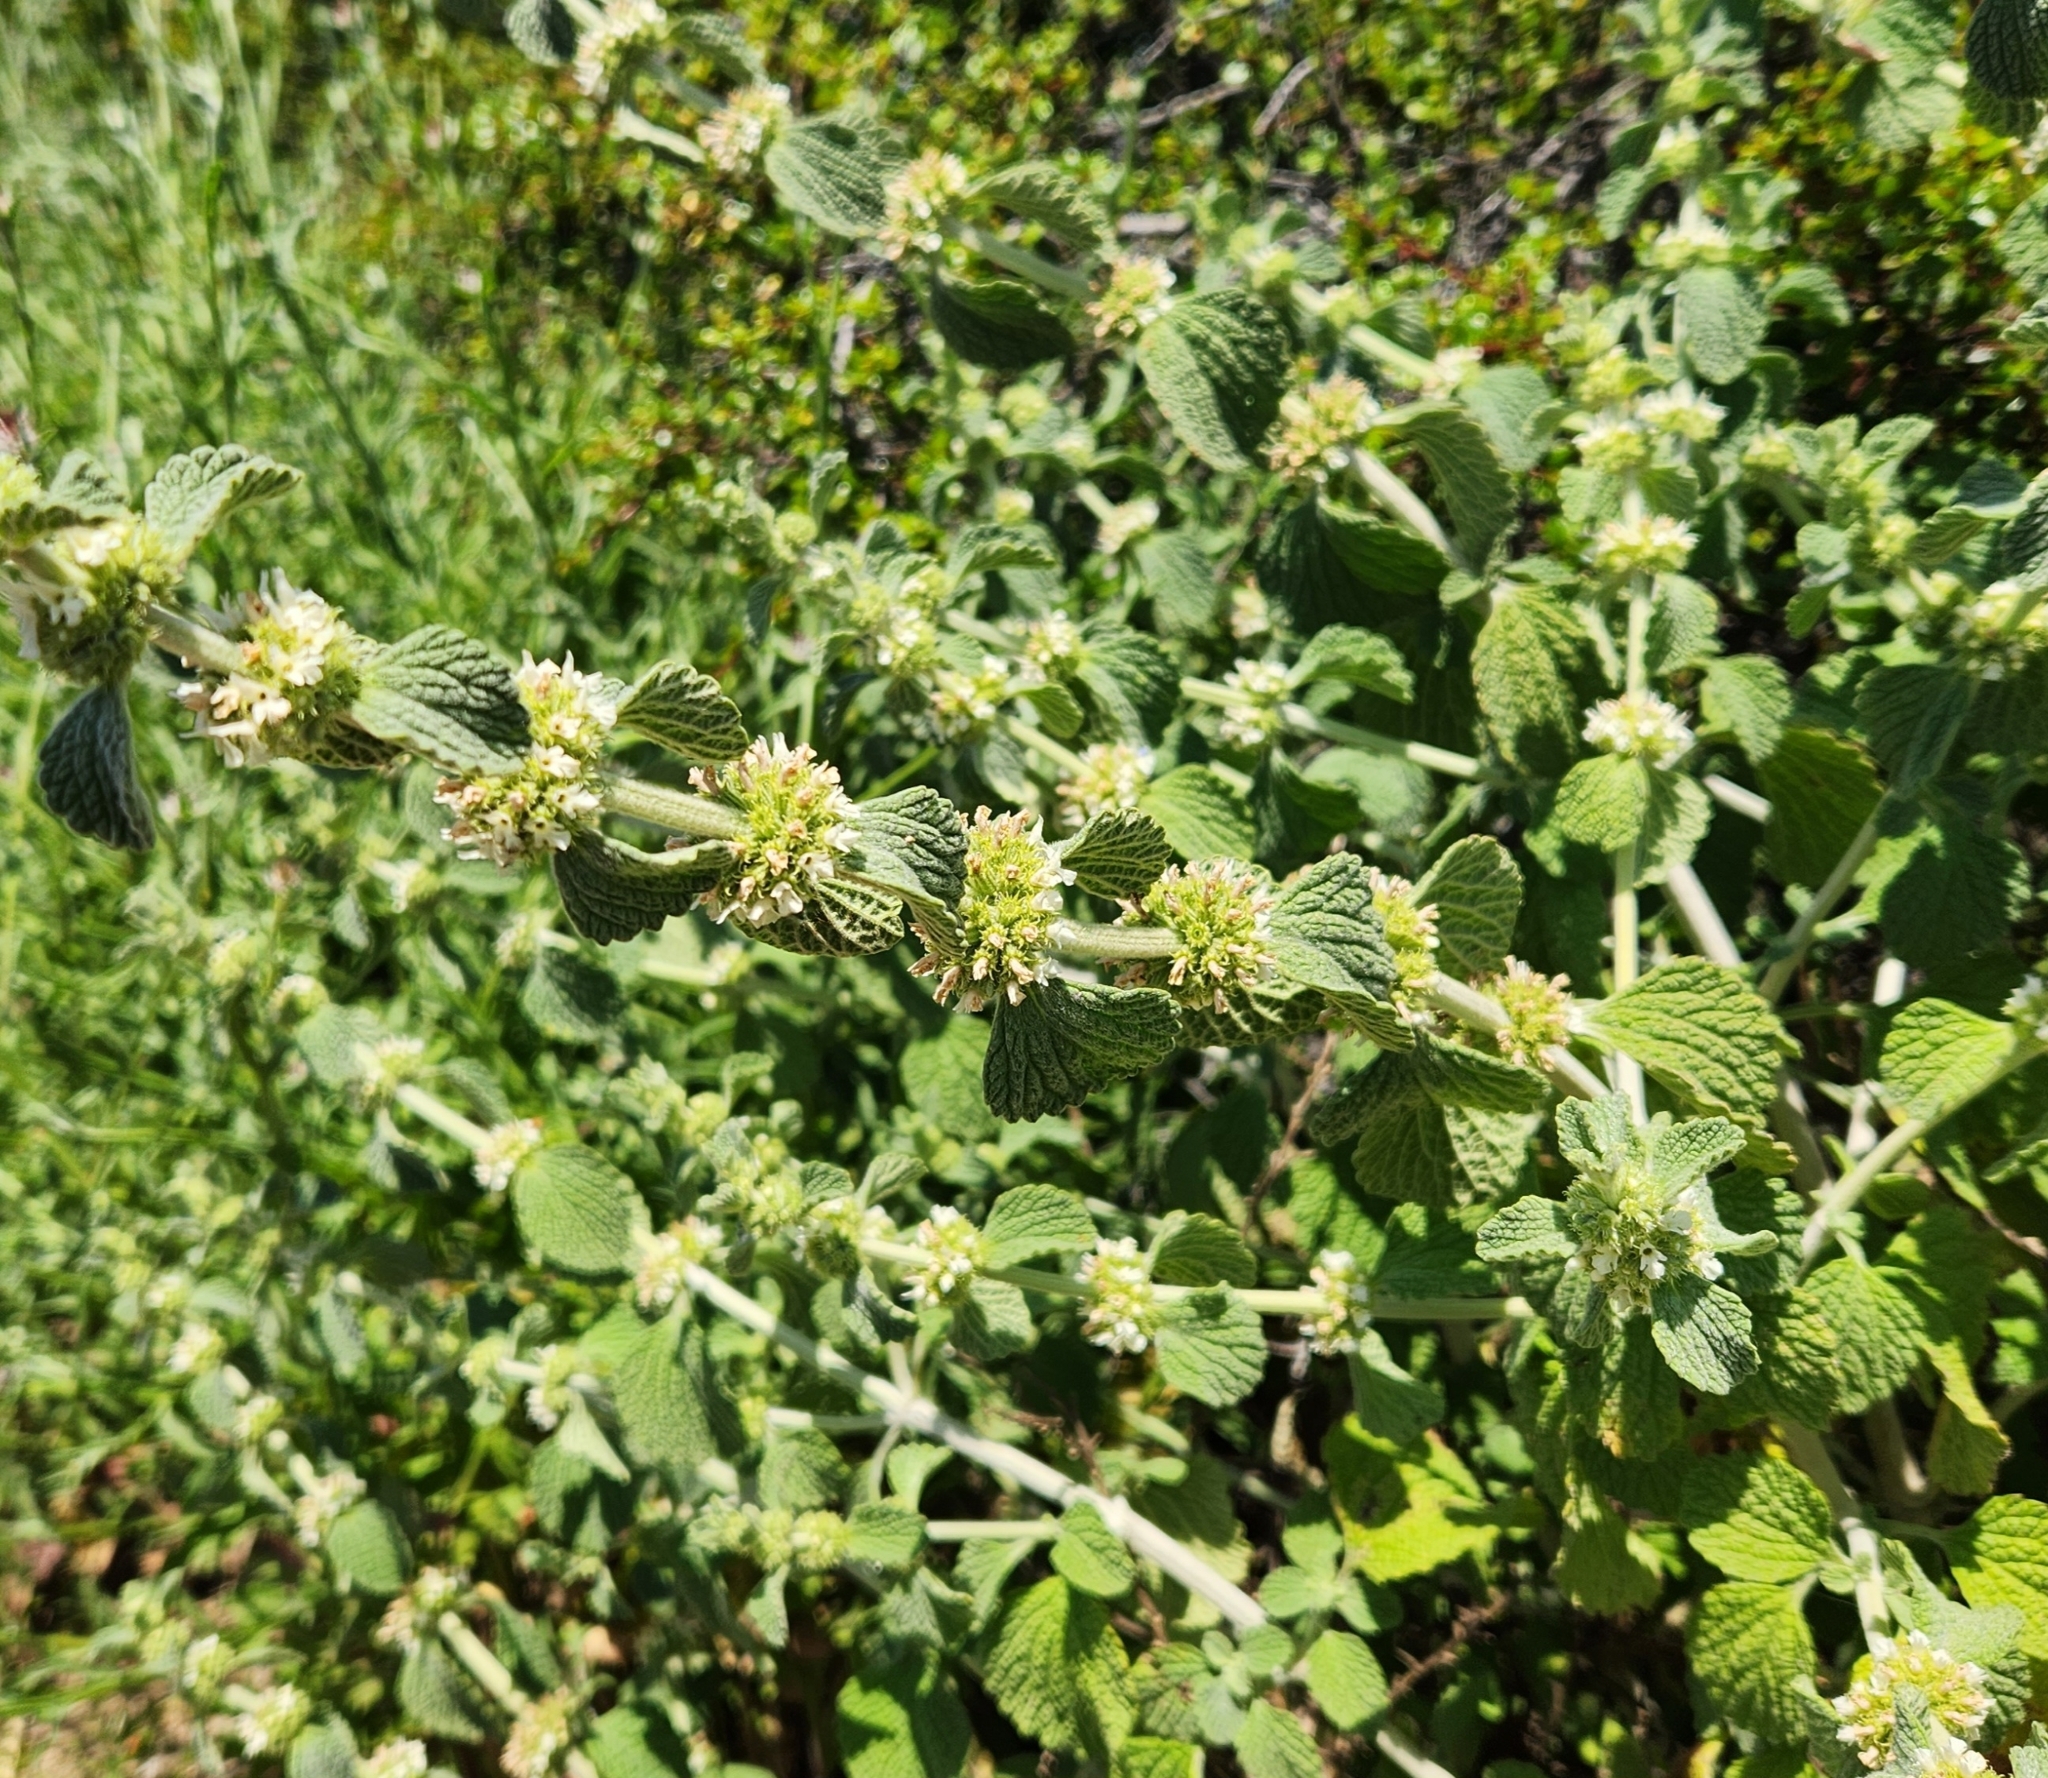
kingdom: Plantae
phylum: Tracheophyta
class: Magnoliopsida
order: Lamiales
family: Lamiaceae
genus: Marrubium
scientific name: Marrubium vulgare
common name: Horehound
